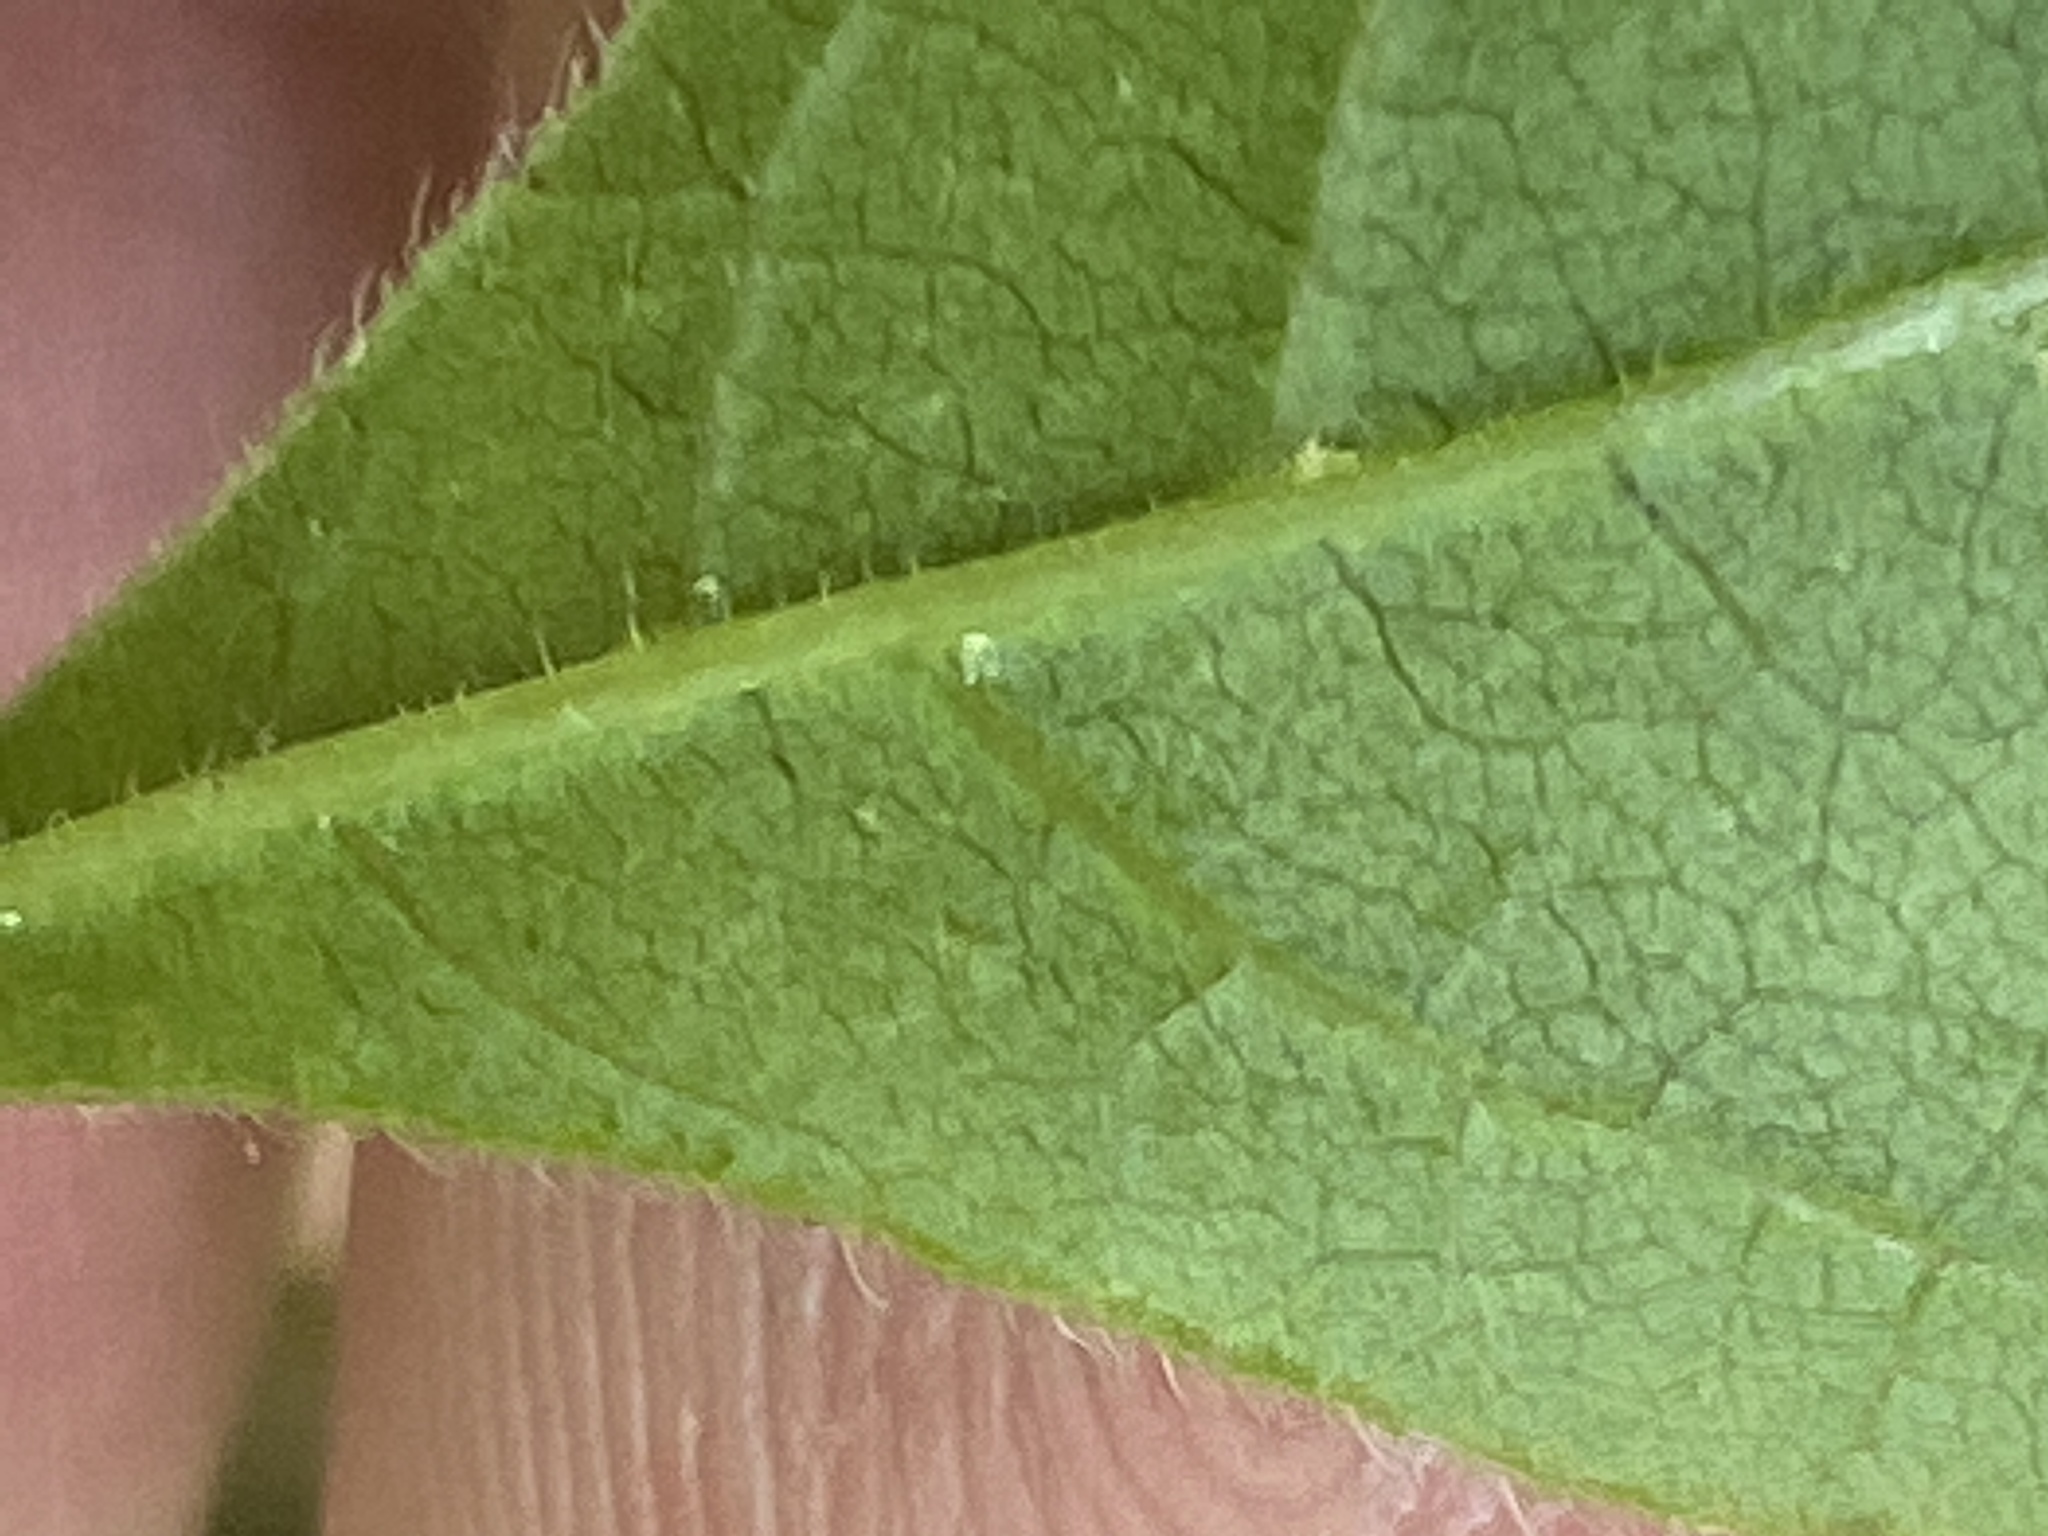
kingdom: Plantae
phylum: Tracheophyta
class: Magnoliopsida
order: Sapindales
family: Anacardiaceae
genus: Rhus
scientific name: Rhus aromatica
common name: Aromatic sumac
